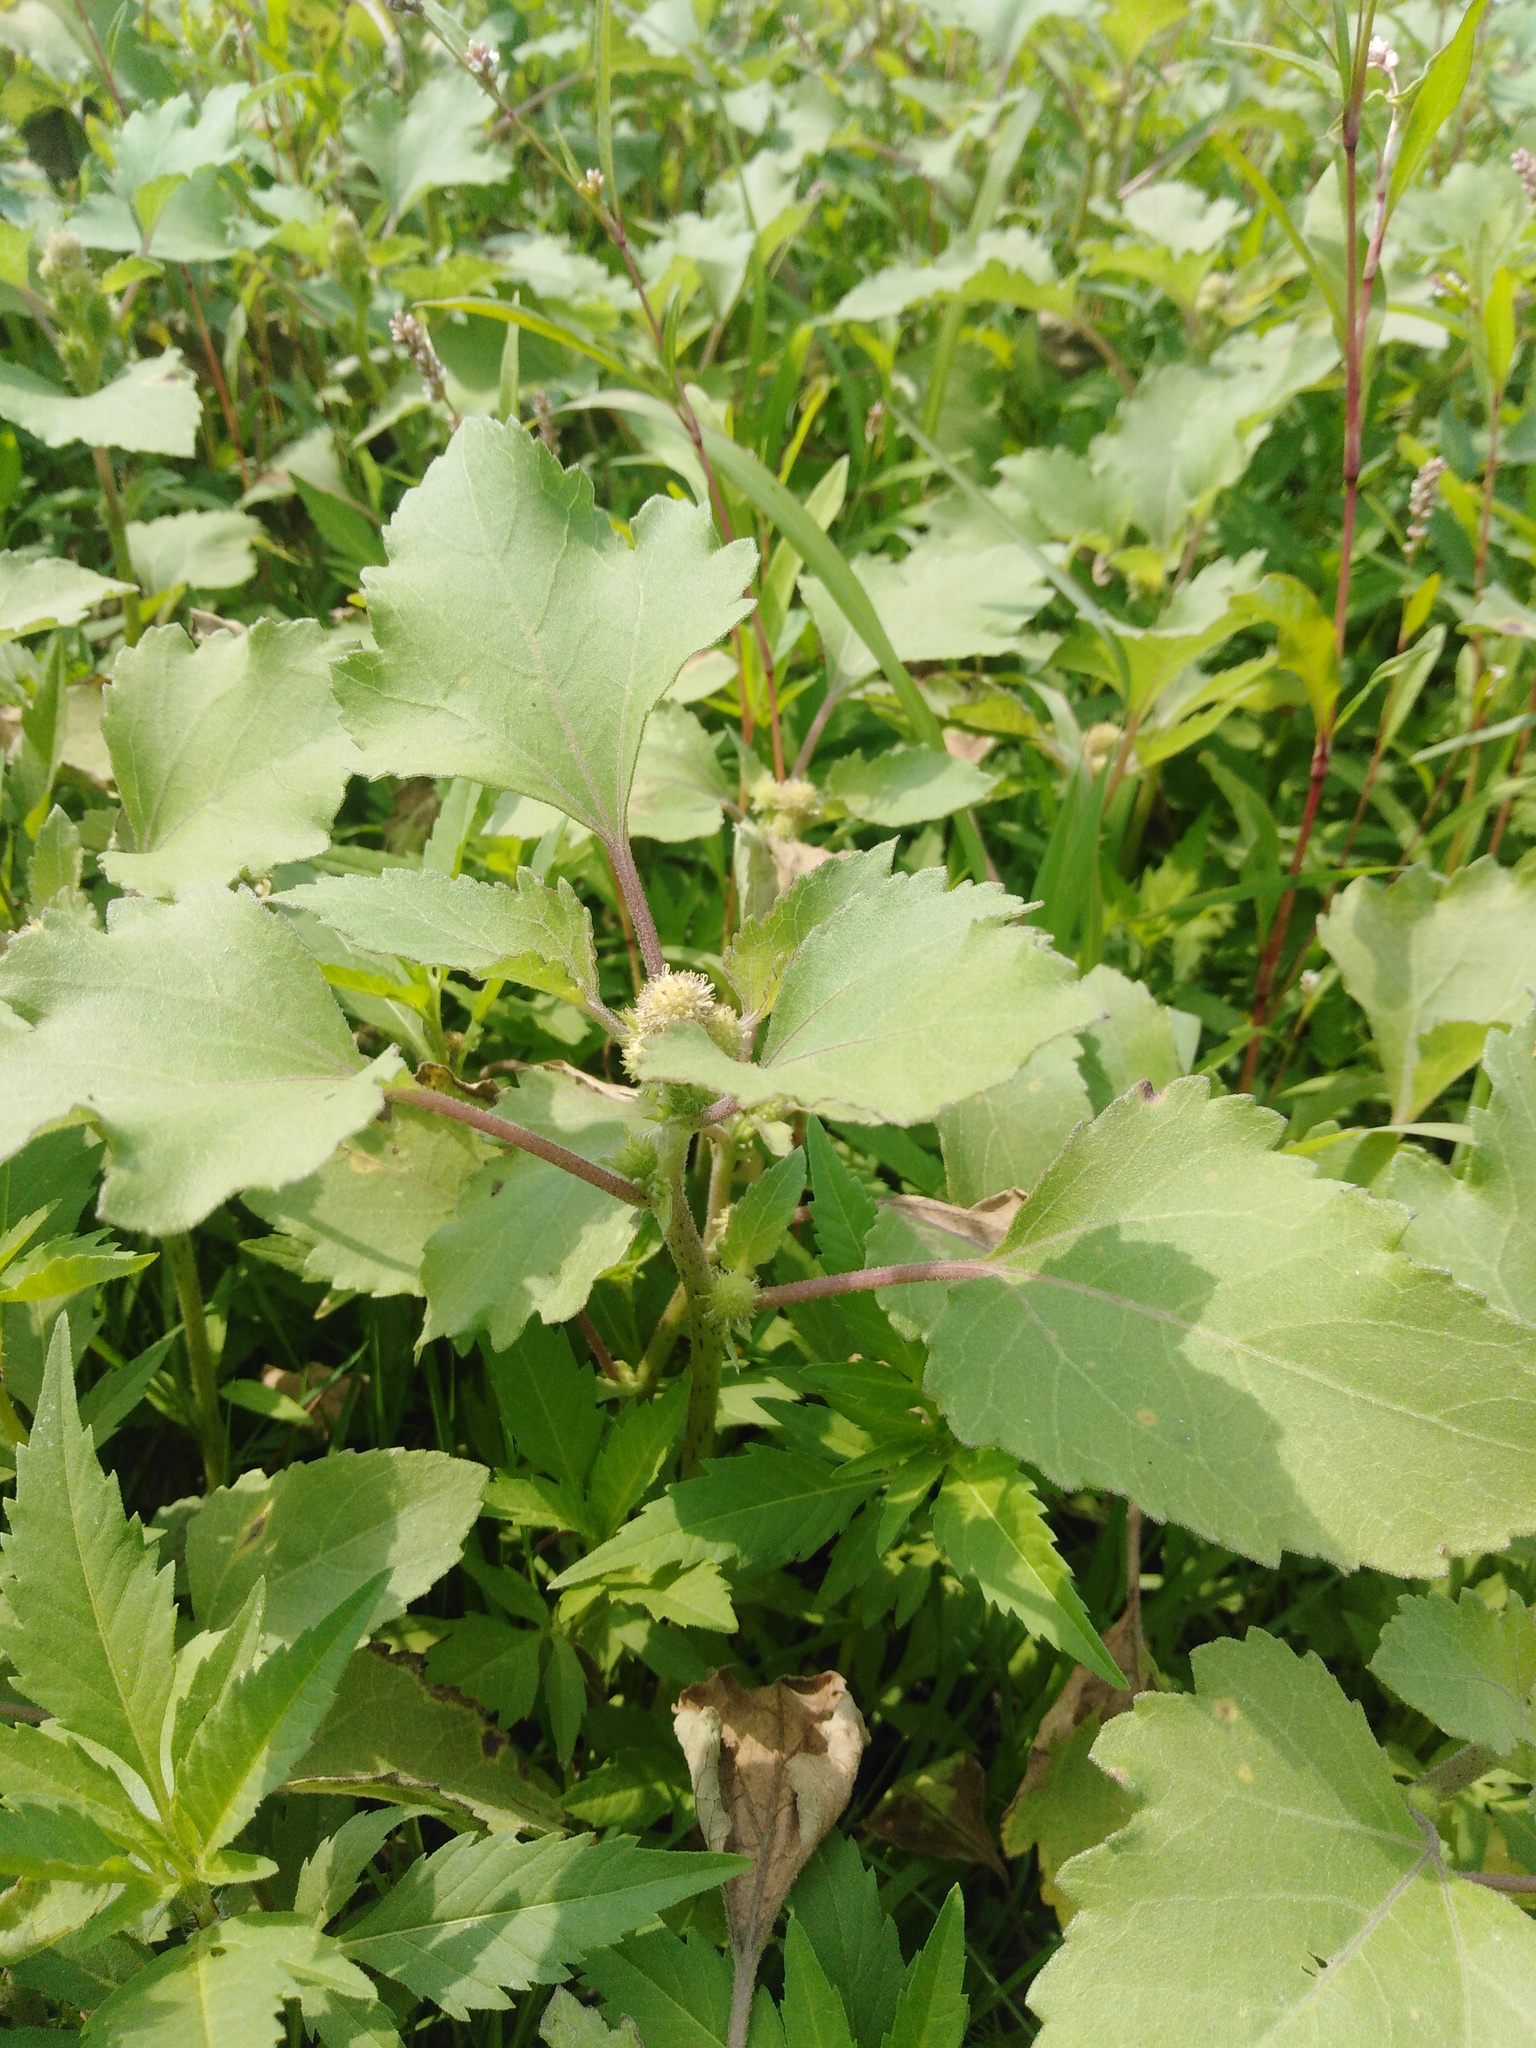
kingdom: Plantae
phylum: Tracheophyta
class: Magnoliopsida
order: Asterales
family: Asteraceae
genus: Xanthium
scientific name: Xanthium orientale
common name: Californian burr
